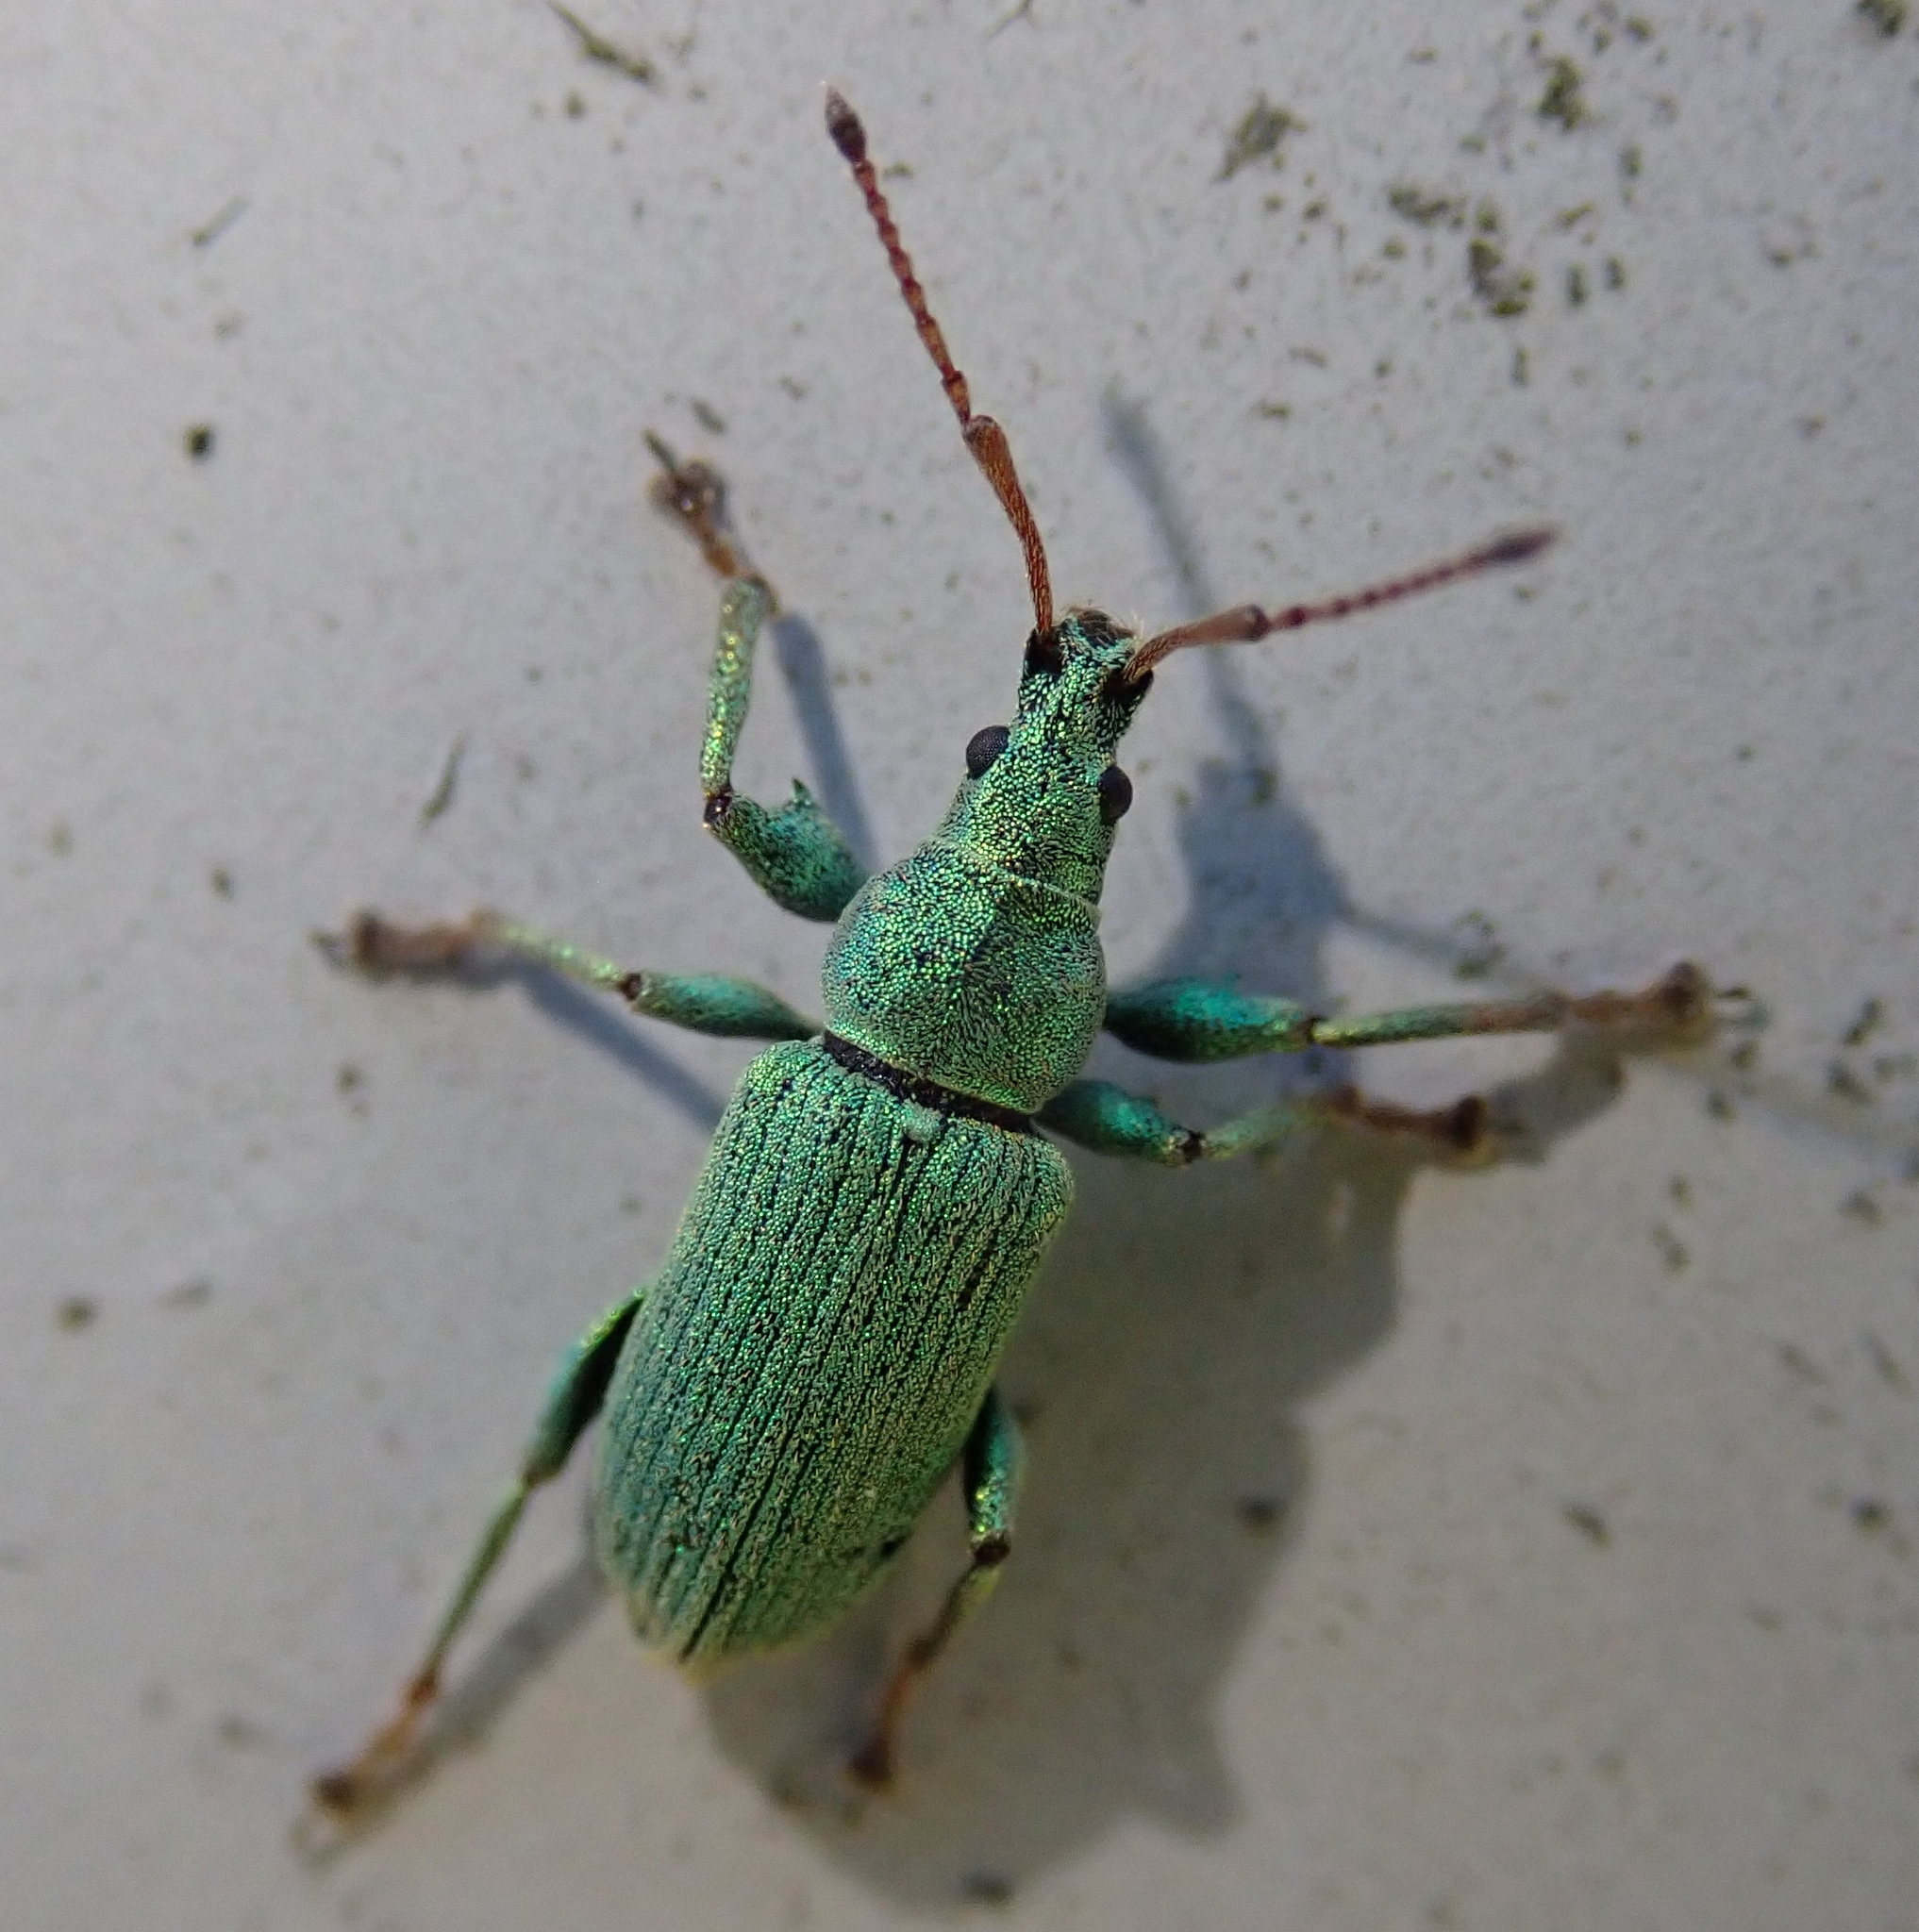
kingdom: Animalia
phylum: Arthropoda
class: Insecta
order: Coleoptera
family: Curculionidae
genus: Phyllobius
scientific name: Phyllobius maculicornis
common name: Green leaf weevil
